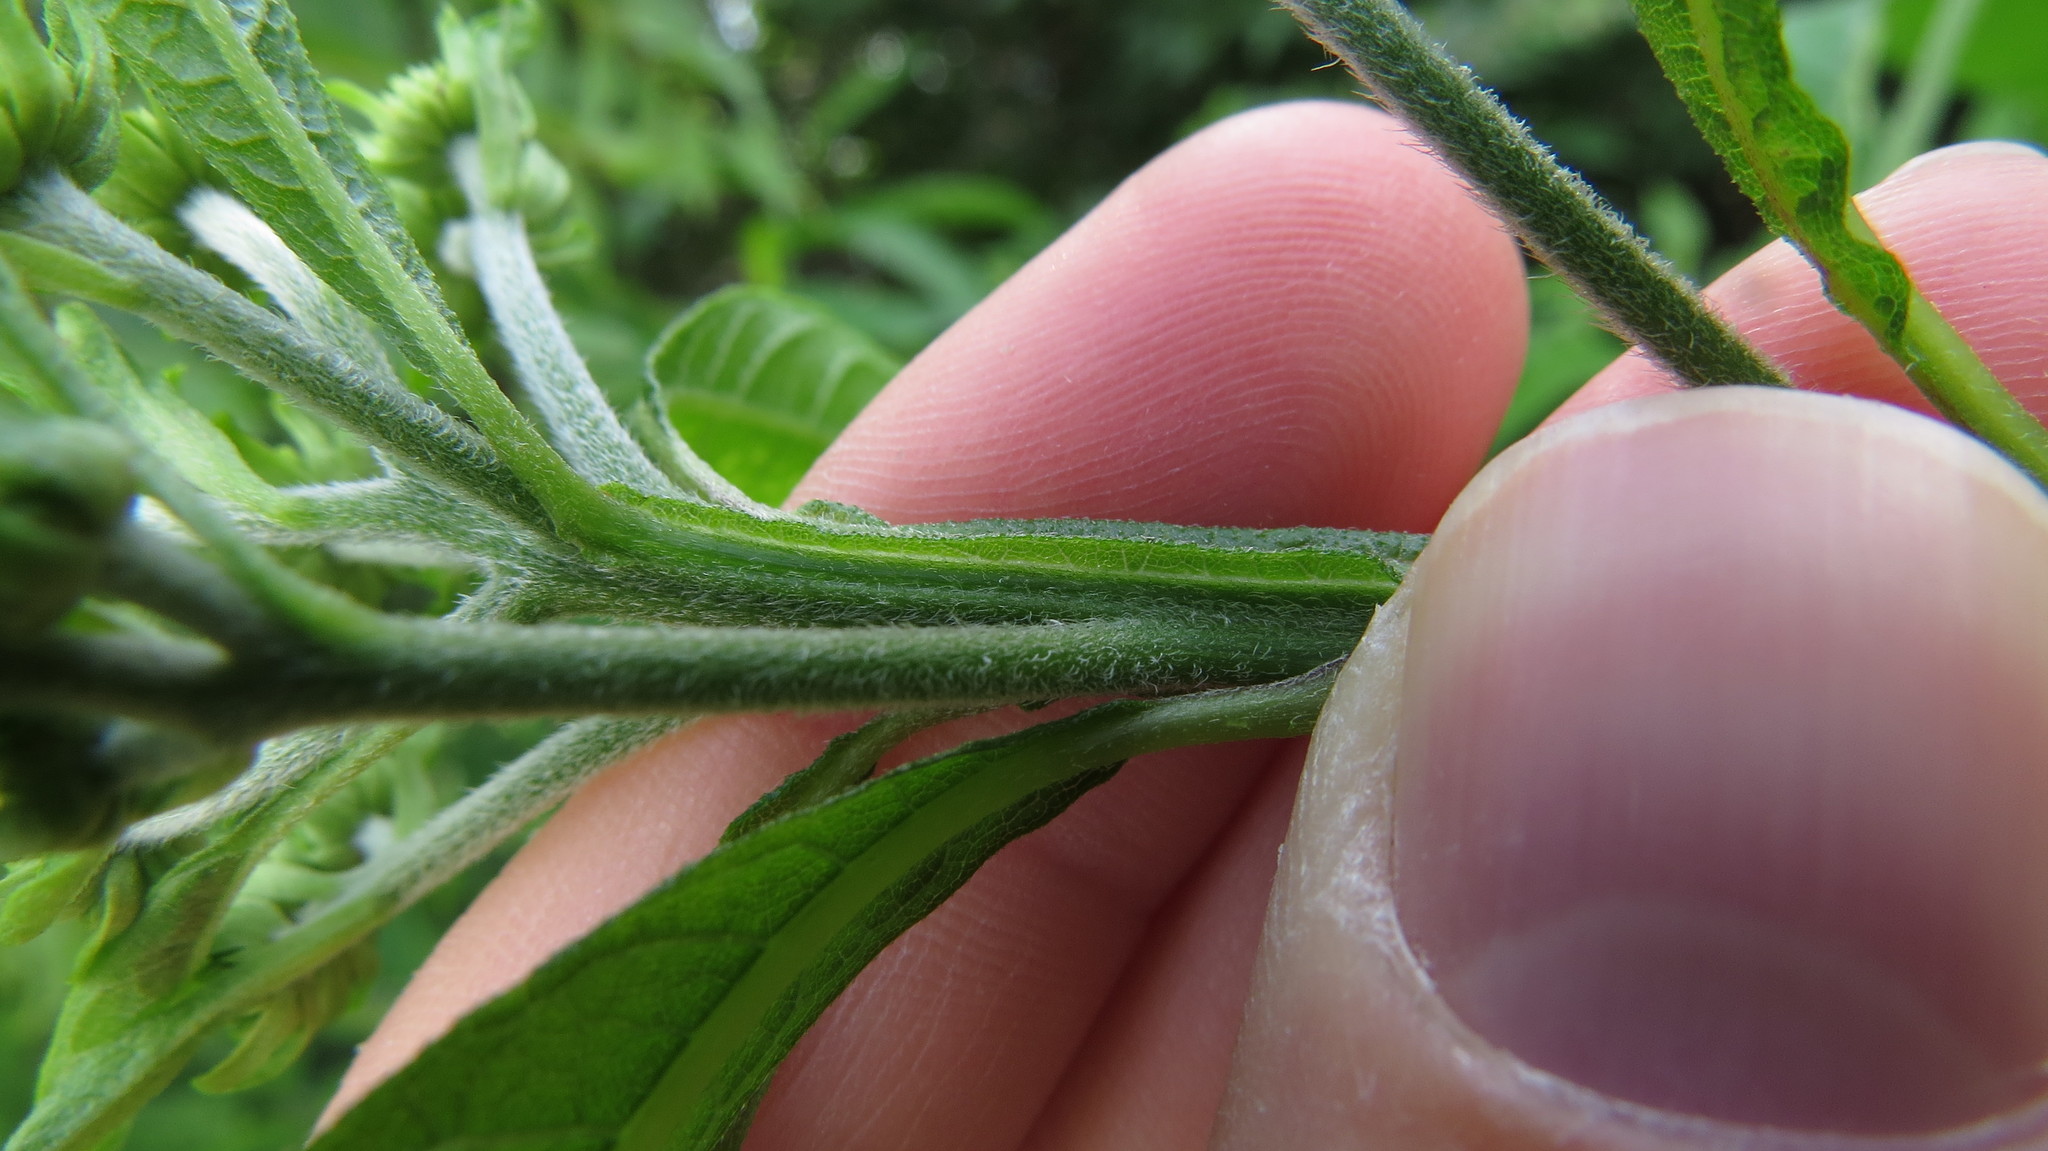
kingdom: Plantae
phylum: Tracheophyta
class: Magnoliopsida
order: Asterales
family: Asteraceae
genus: Verbesina
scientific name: Verbesina alternifolia
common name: Wingstem
